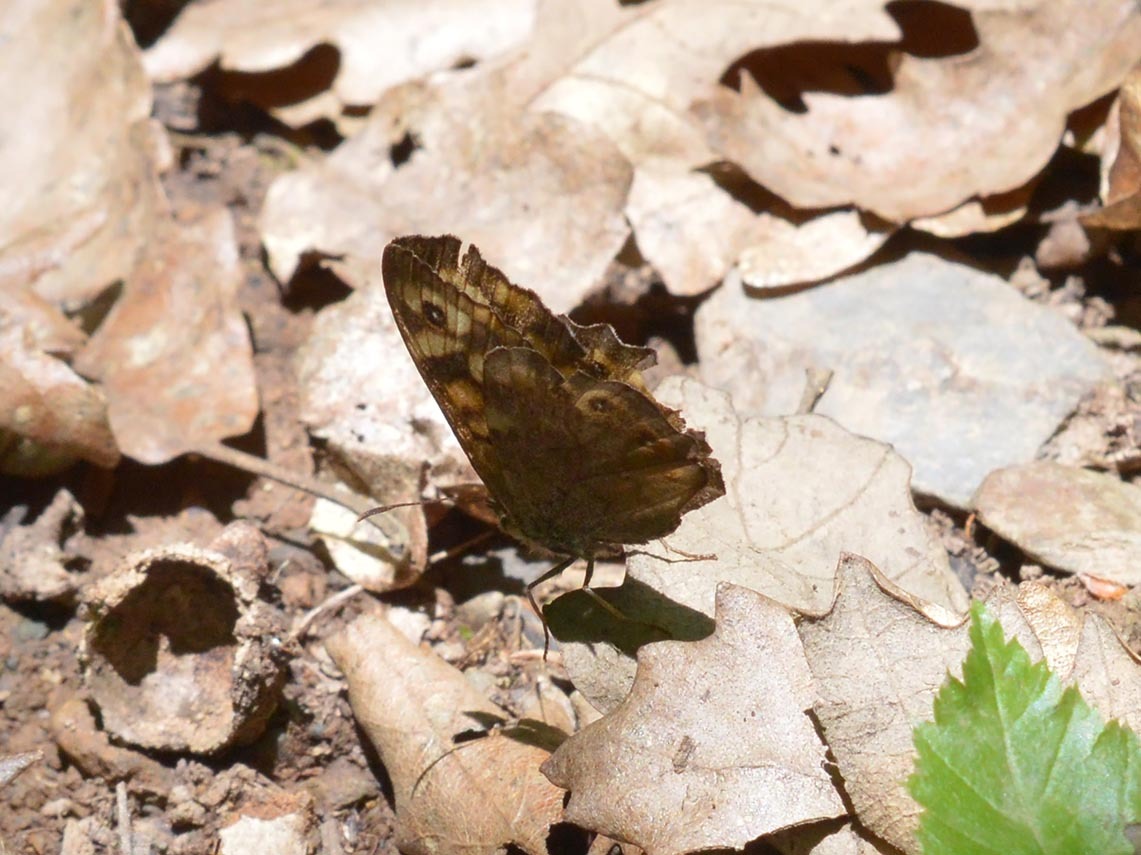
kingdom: Animalia
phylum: Arthropoda
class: Insecta
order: Lepidoptera
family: Nymphalidae
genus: Pararge
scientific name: Pararge aegeria
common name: Speckled wood
